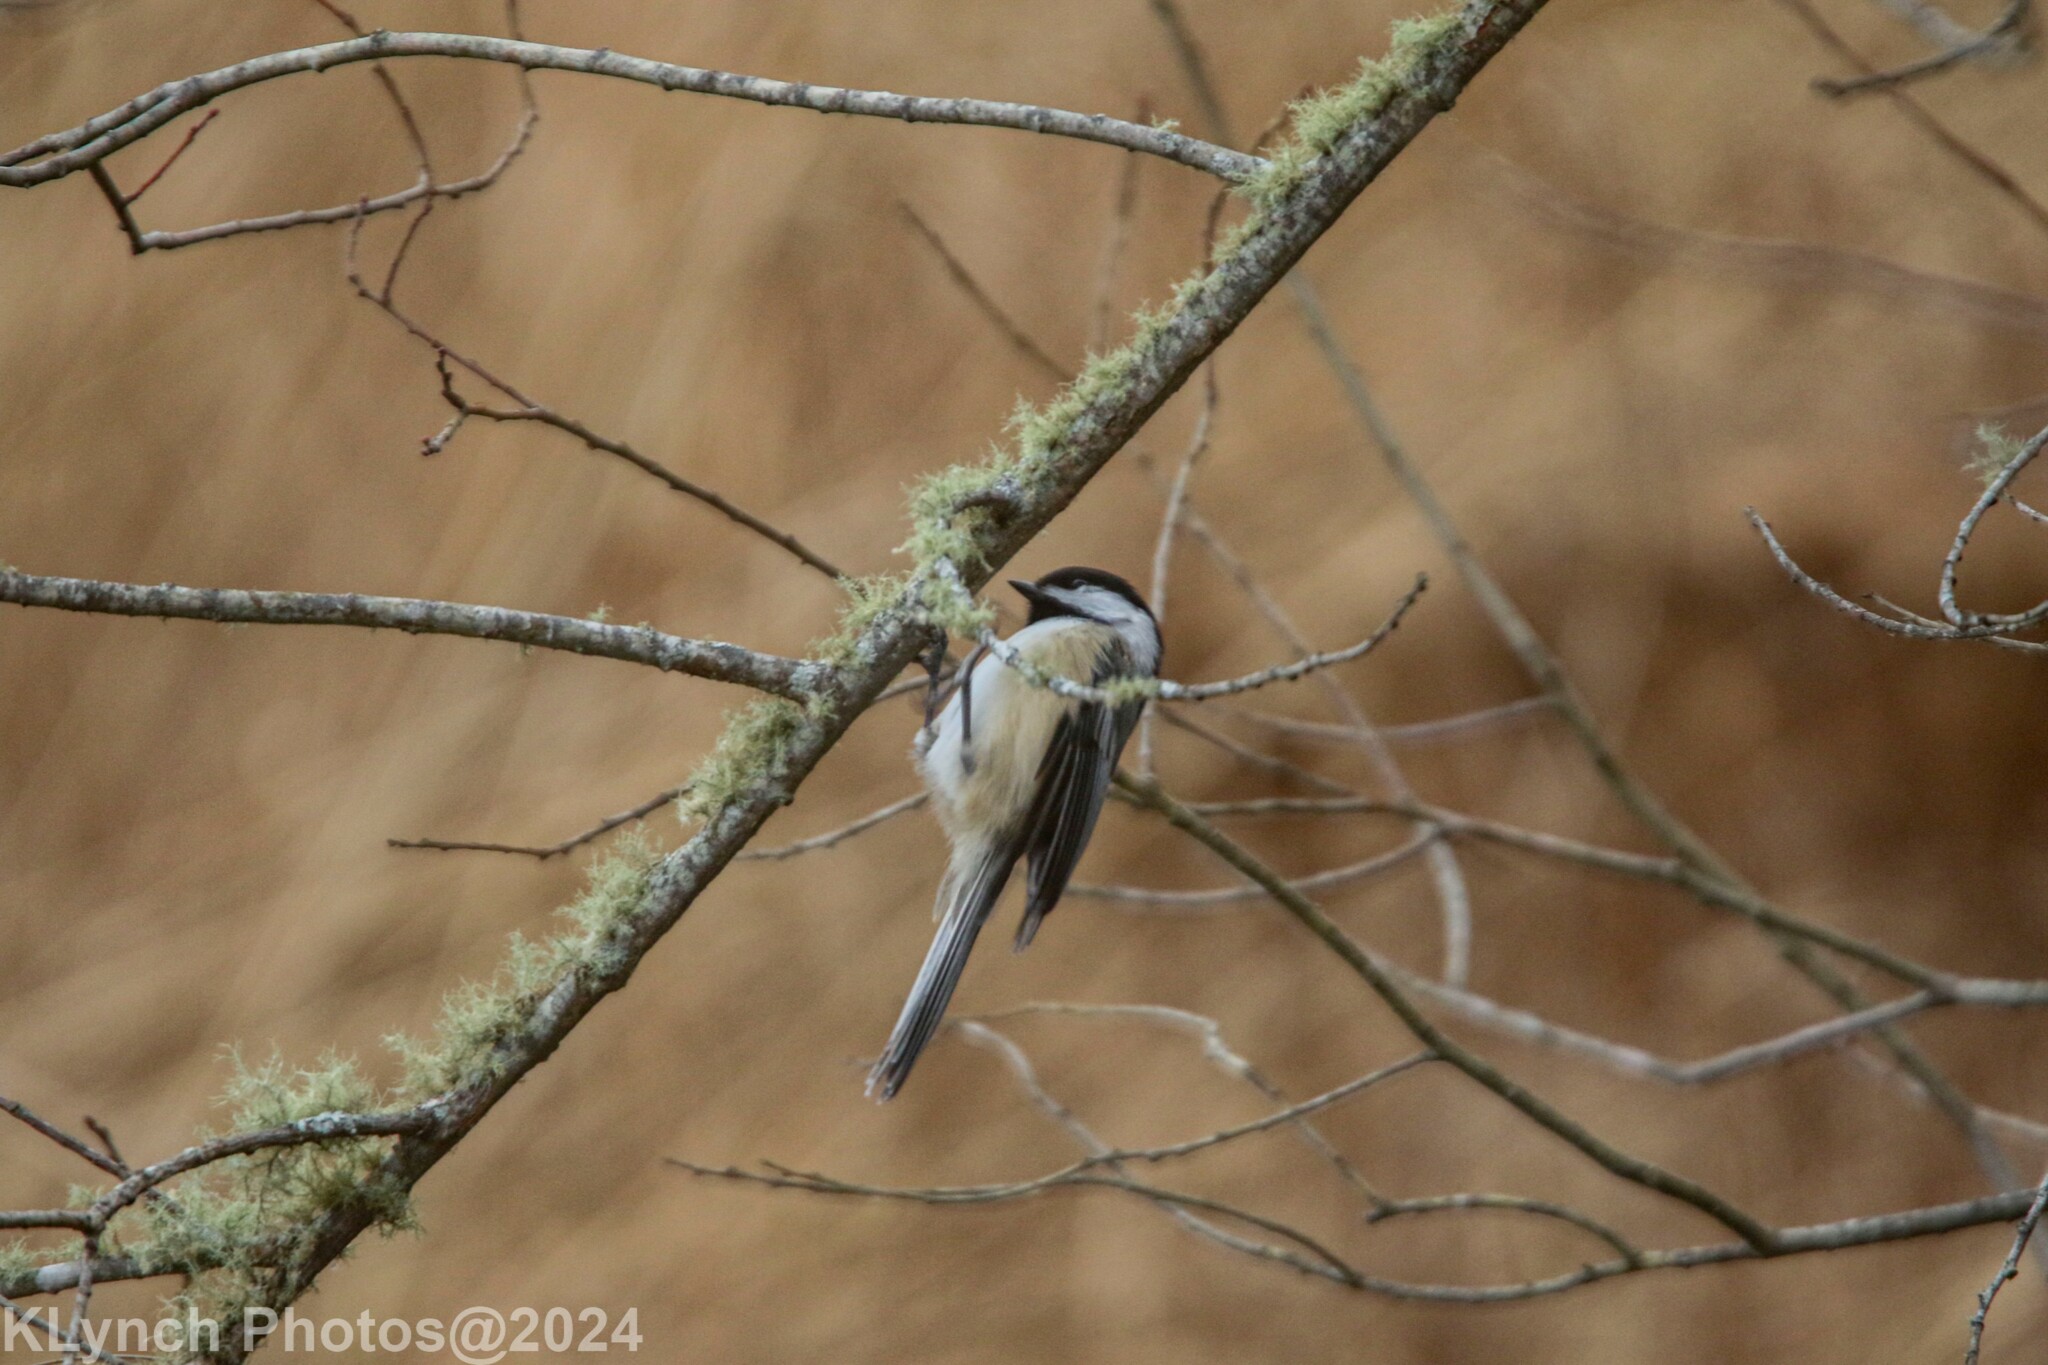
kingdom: Animalia
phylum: Chordata
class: Aves
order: Passeriformes
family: Paridae
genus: Poecile
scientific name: Poecile atricapillus
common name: Black-capped chickadee
